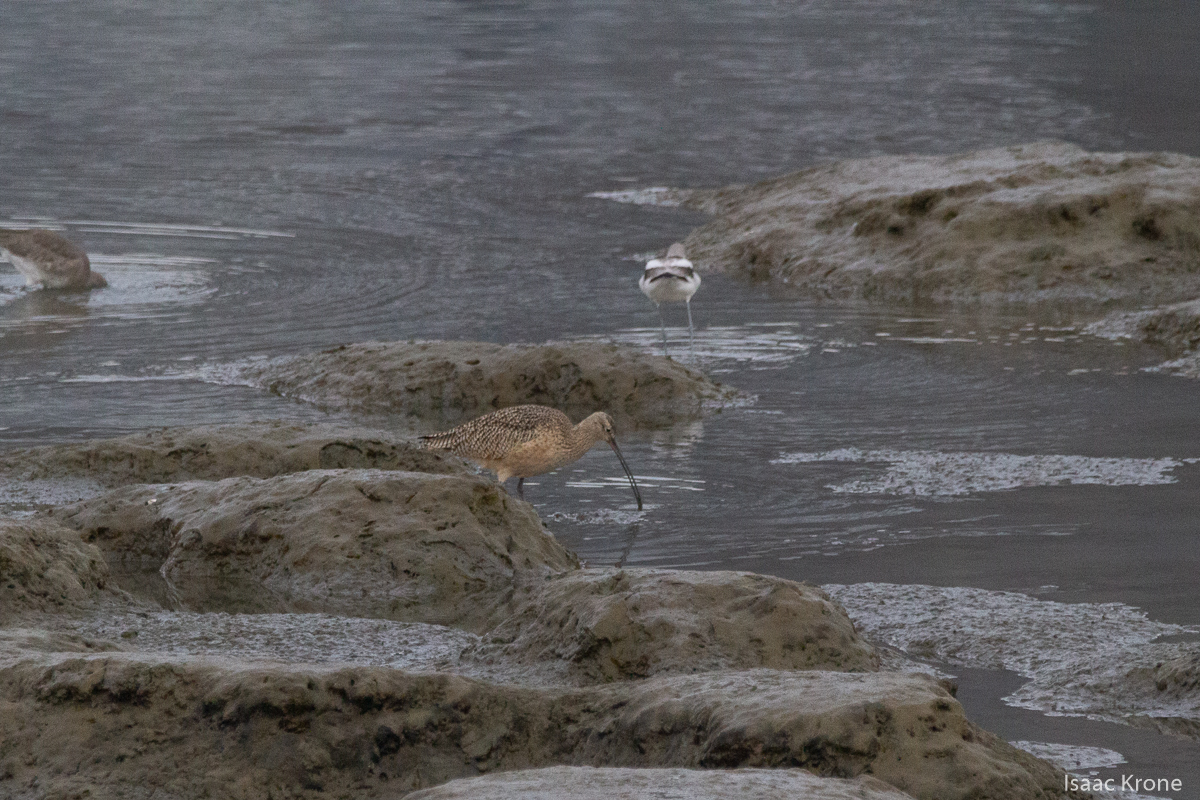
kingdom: Animalia
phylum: Chordata
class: Aves
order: Charadriiformes
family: Scolopacidae
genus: Numenius
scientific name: Numenius americanus
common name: Long-billed curlew
